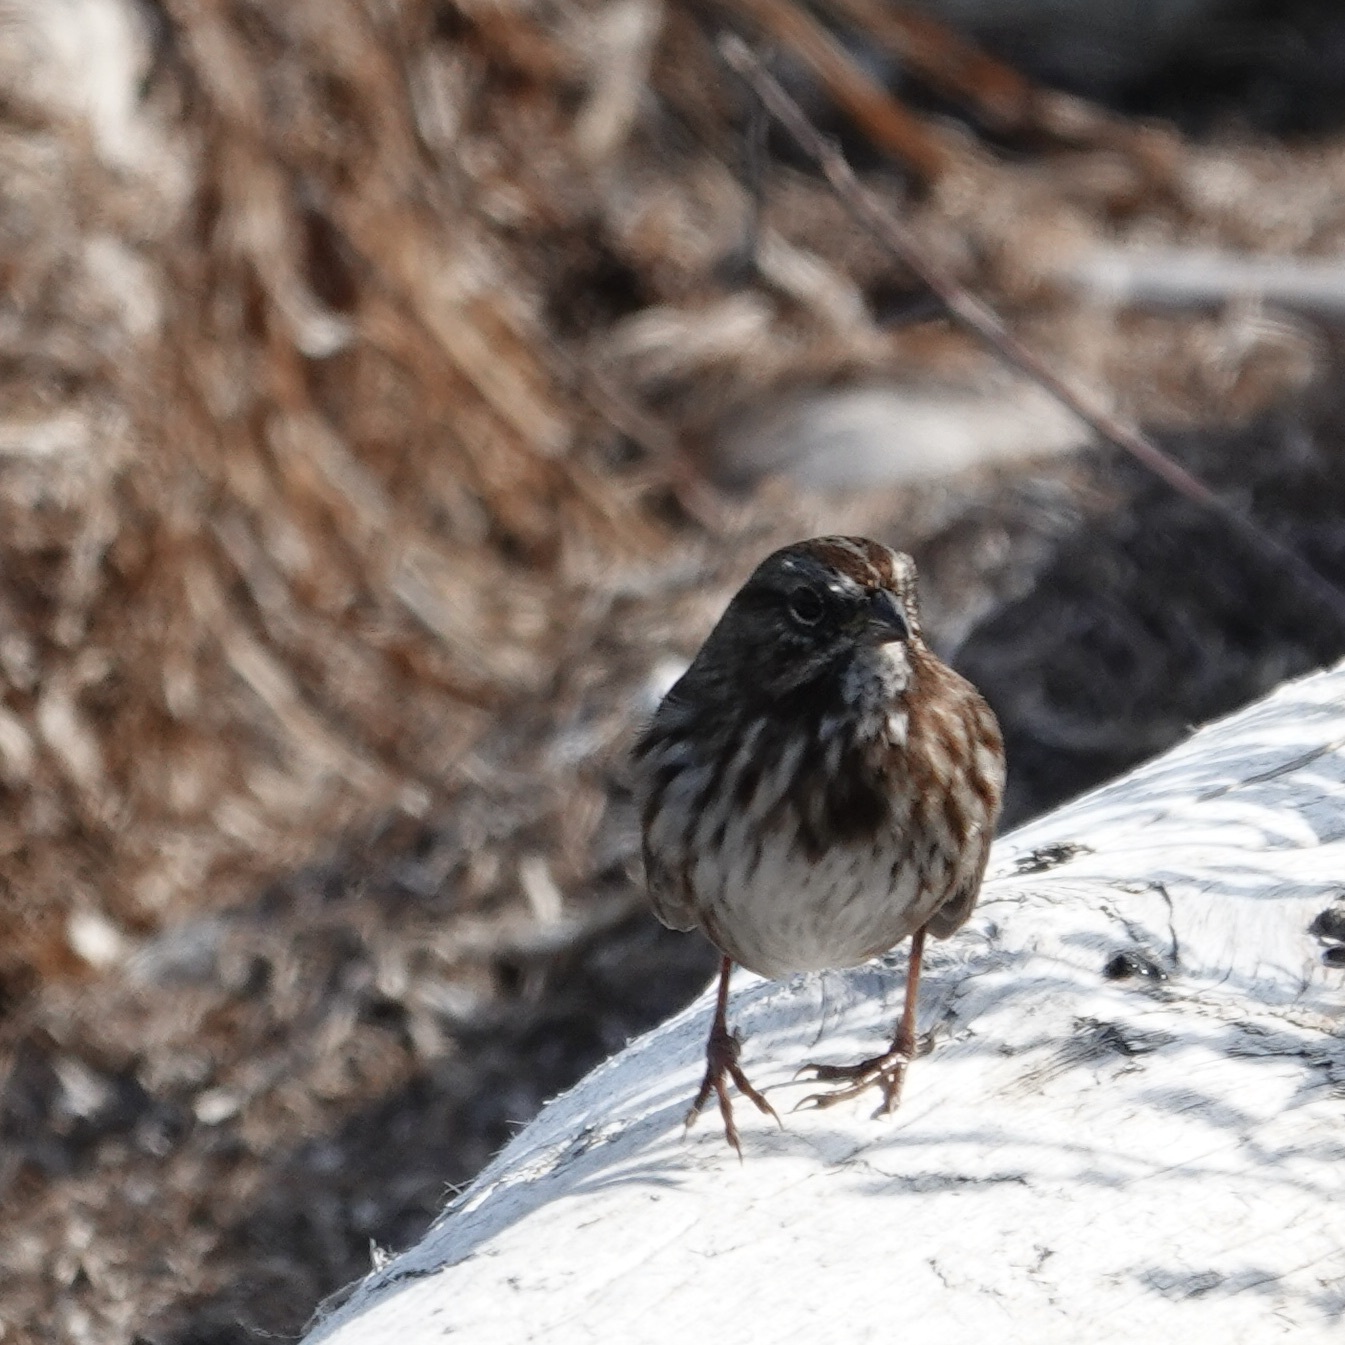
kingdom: Animalia
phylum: Chordata
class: Aves
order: Passeriformes
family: Passerellidae
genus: Melospiza
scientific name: Melospiza melodia
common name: Song sparrow
